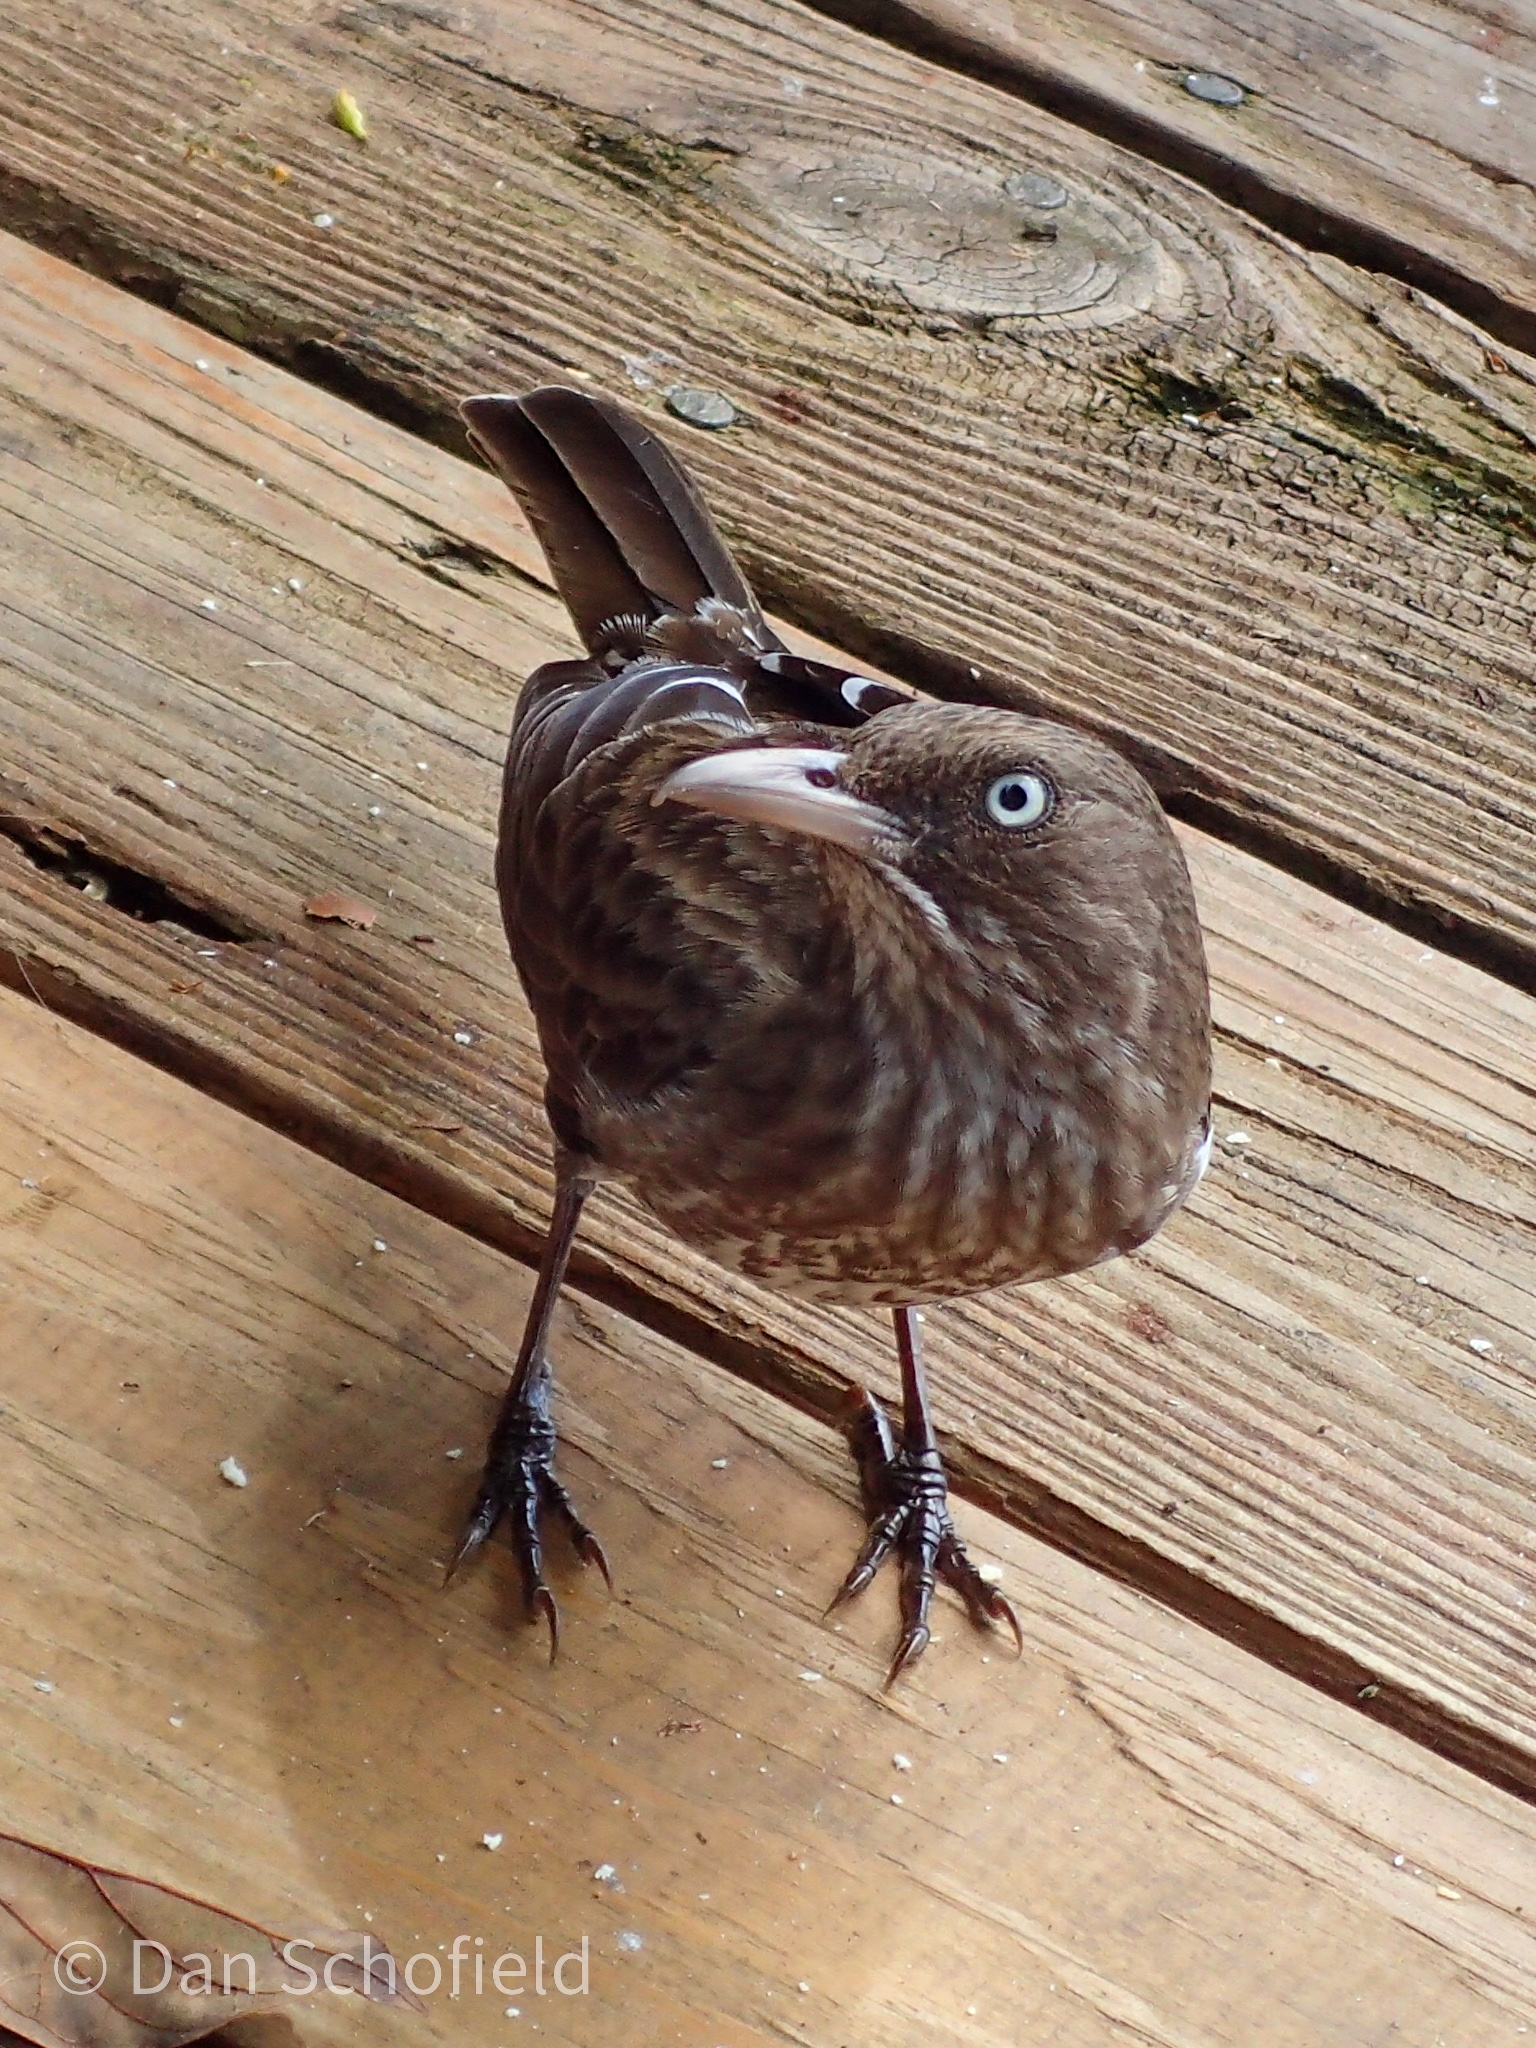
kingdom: Animalia
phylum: Chordata
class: Aves
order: Passeriformes
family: Mimidae
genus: Margarops
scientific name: Margarops fuscatus
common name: Pearly-eyed thrasher
